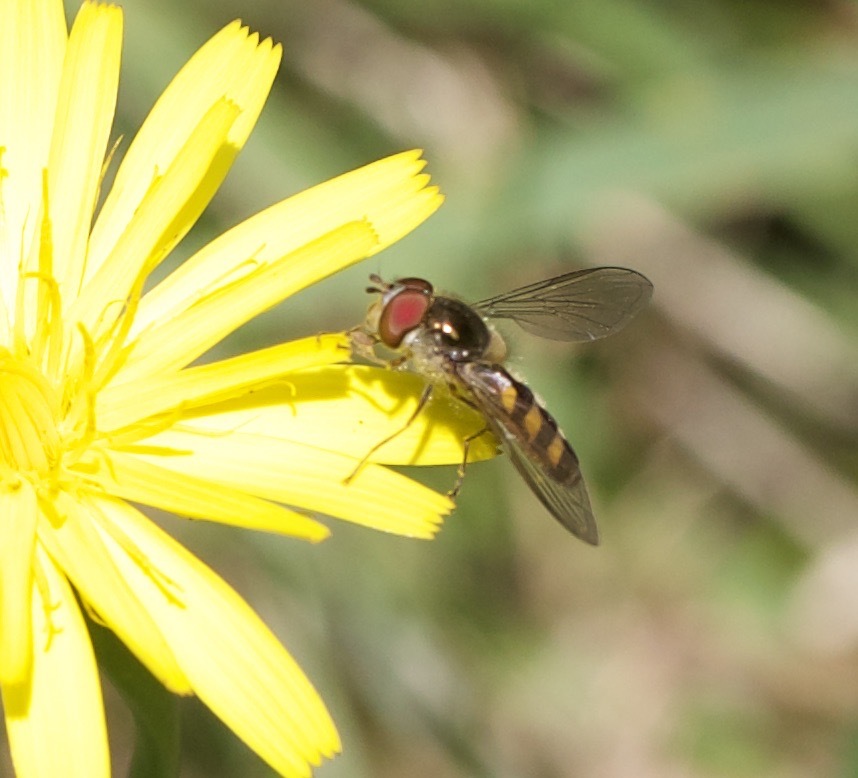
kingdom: Animalia
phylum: Arthropoda
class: Insecta
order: Diptera
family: Syrphidae
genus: Meliscaeva
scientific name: Meliscaeva auricollis
